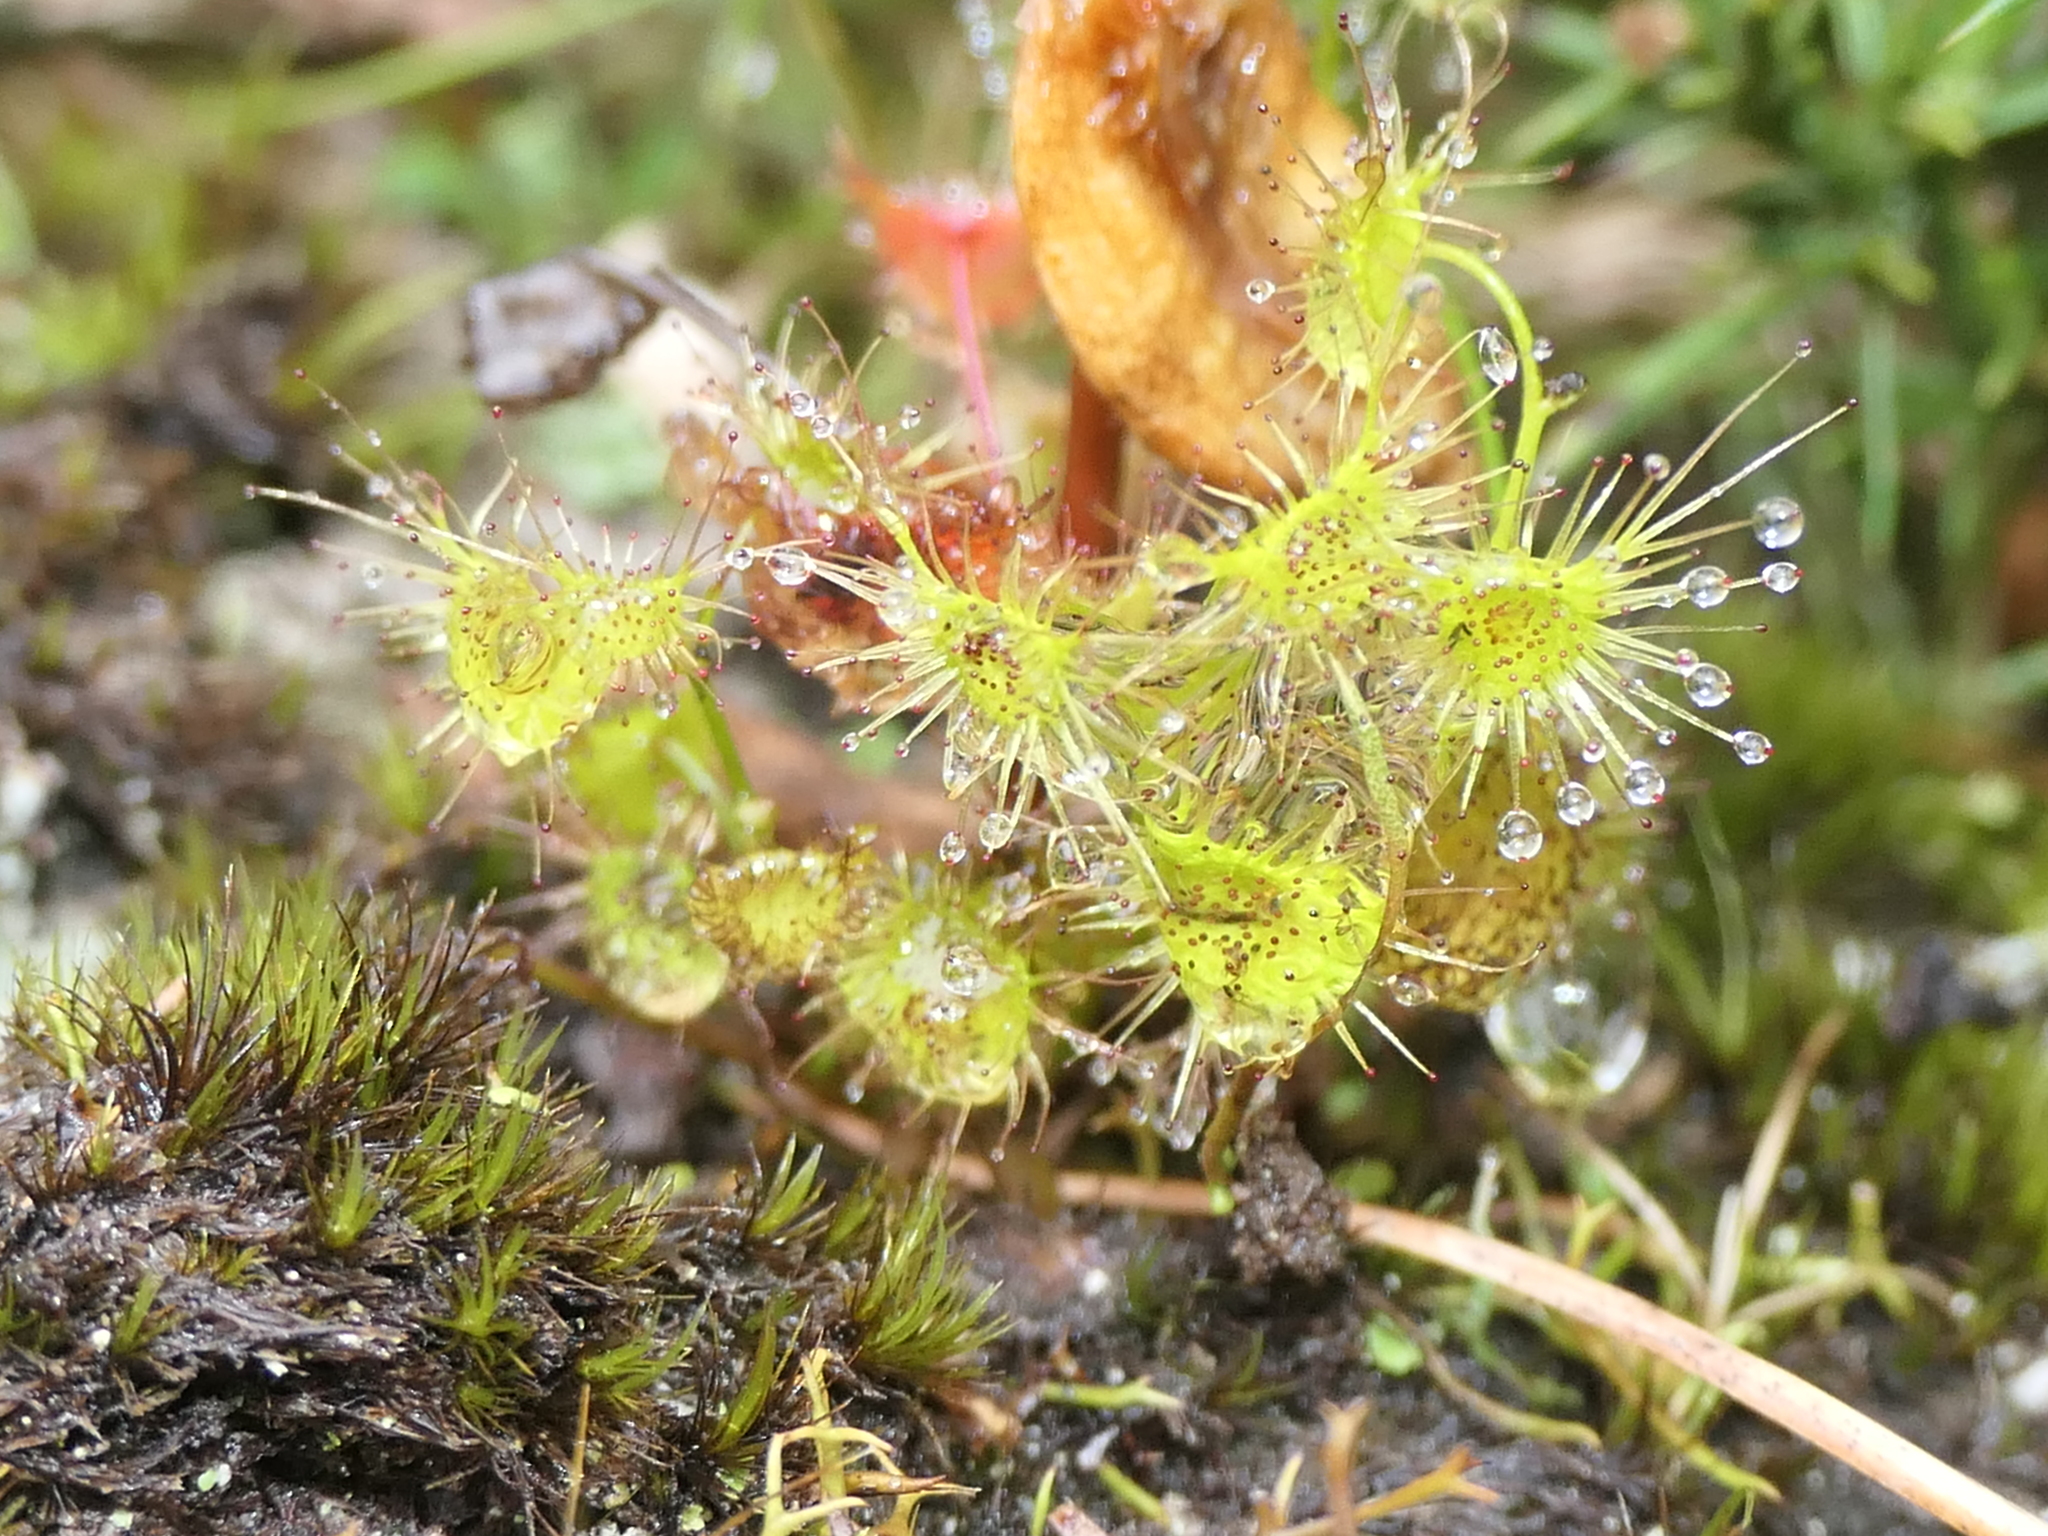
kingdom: Plantae
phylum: Tracheophyta
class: Magnoliopsida
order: Caryophyllales
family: Droseraceae
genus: Drosera
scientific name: Drosera peltata
